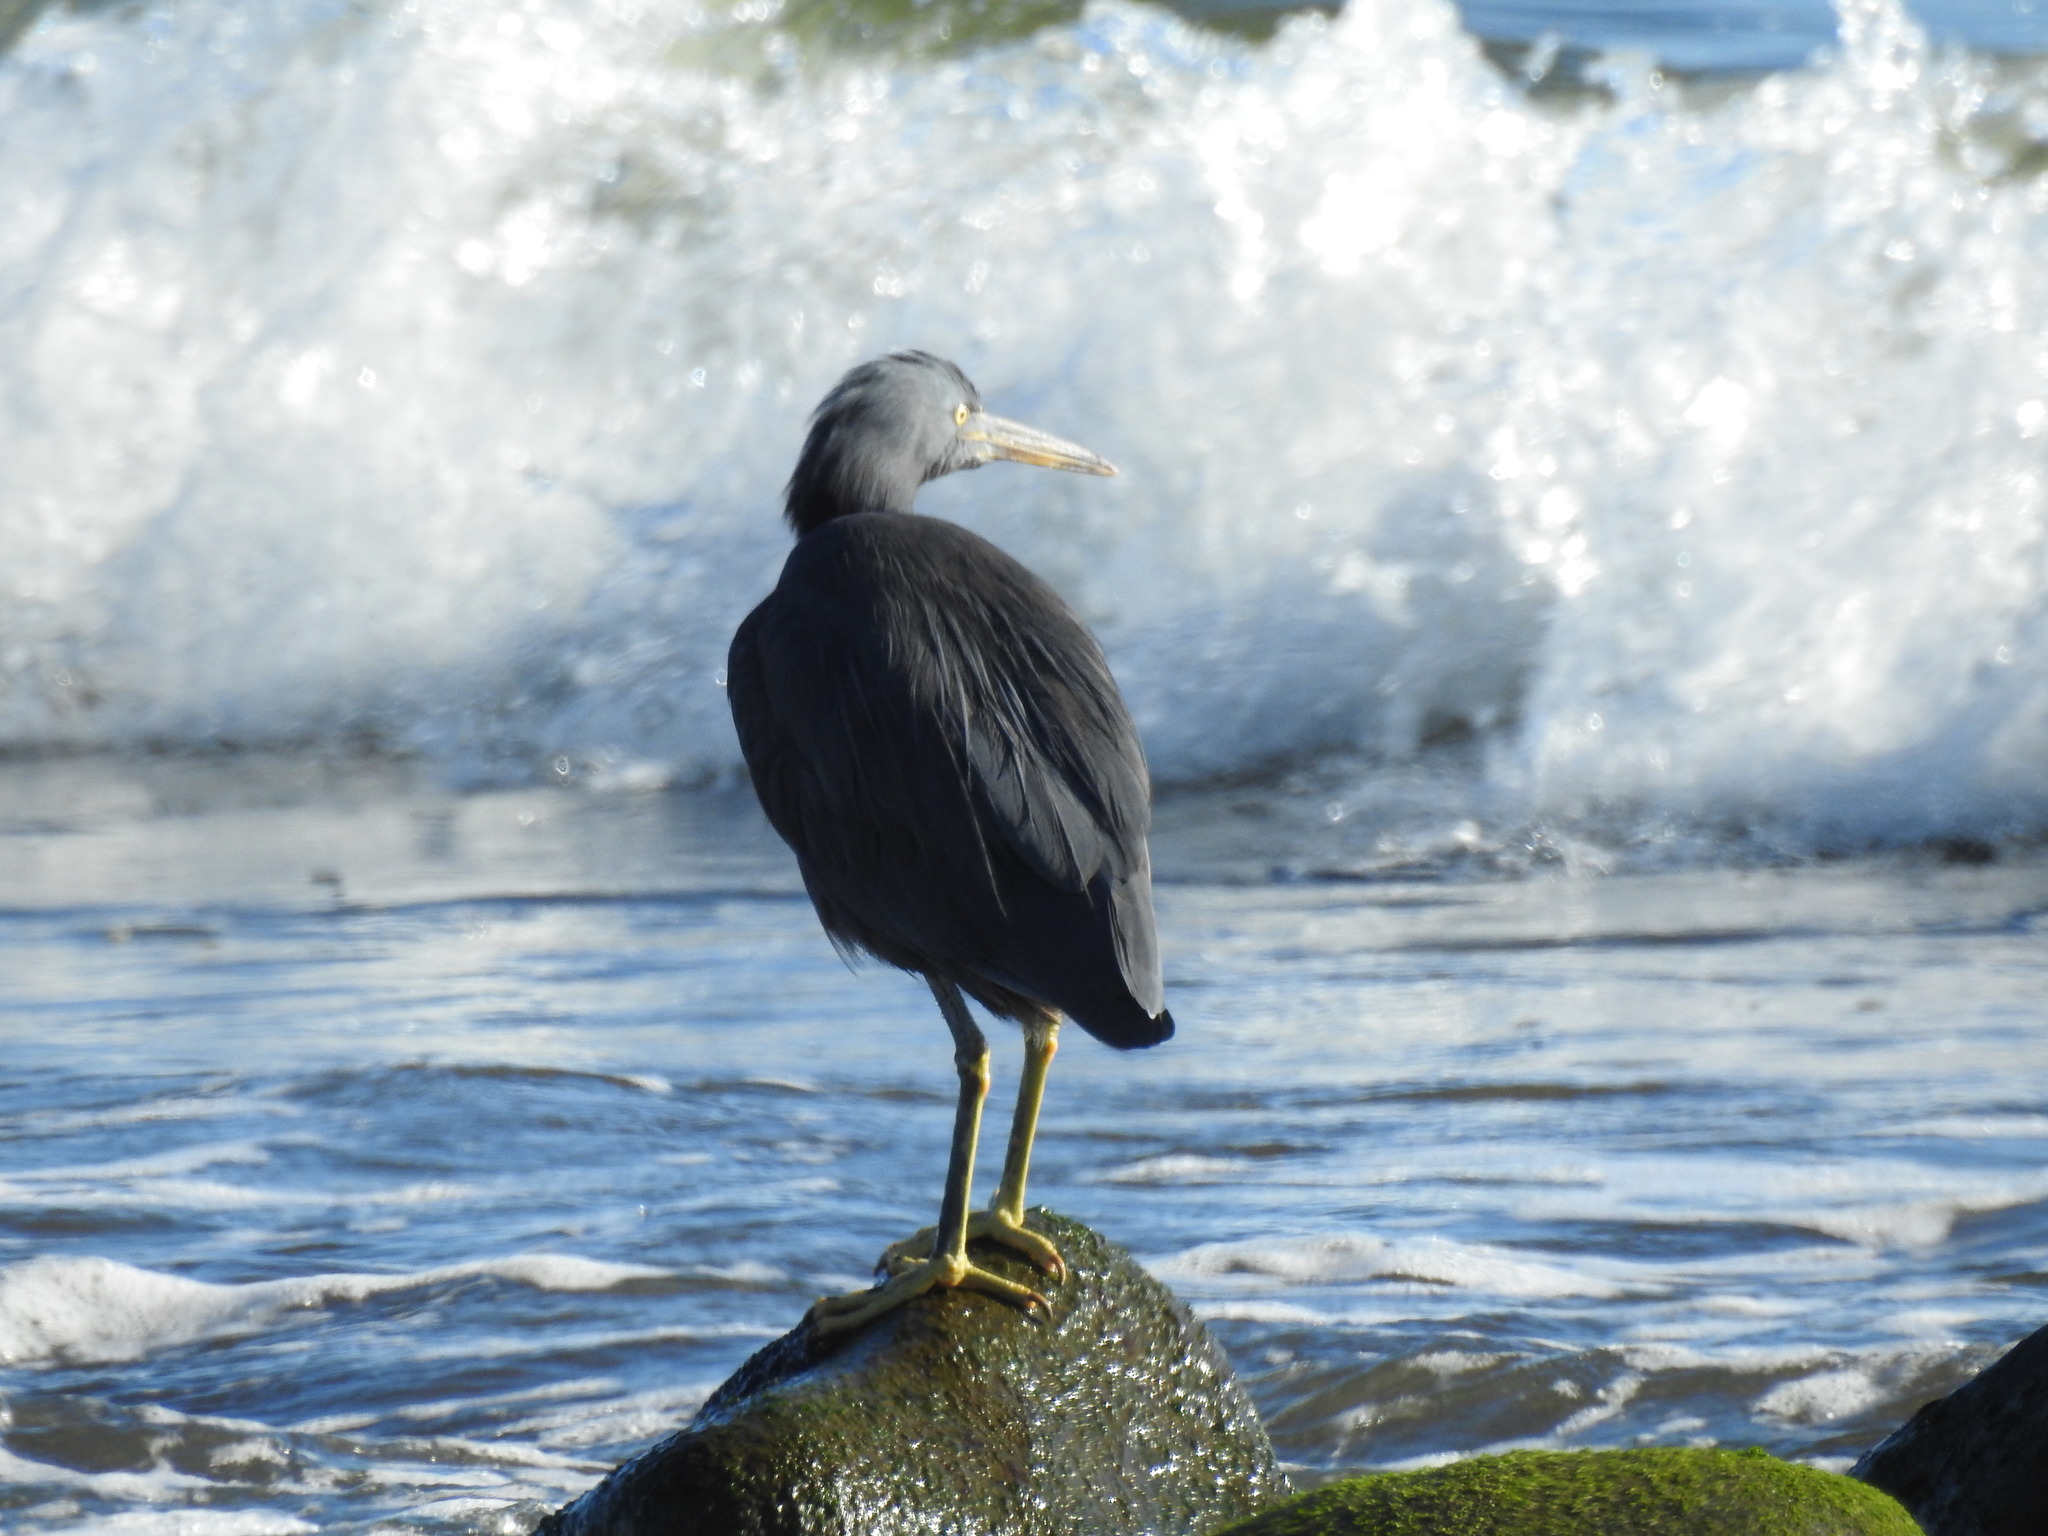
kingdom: Animalia
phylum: Chordata
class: Aves
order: Pelecaniformes
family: Ardeidae
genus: Egretta
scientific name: Egretta sacra
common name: Pacific reef heron
